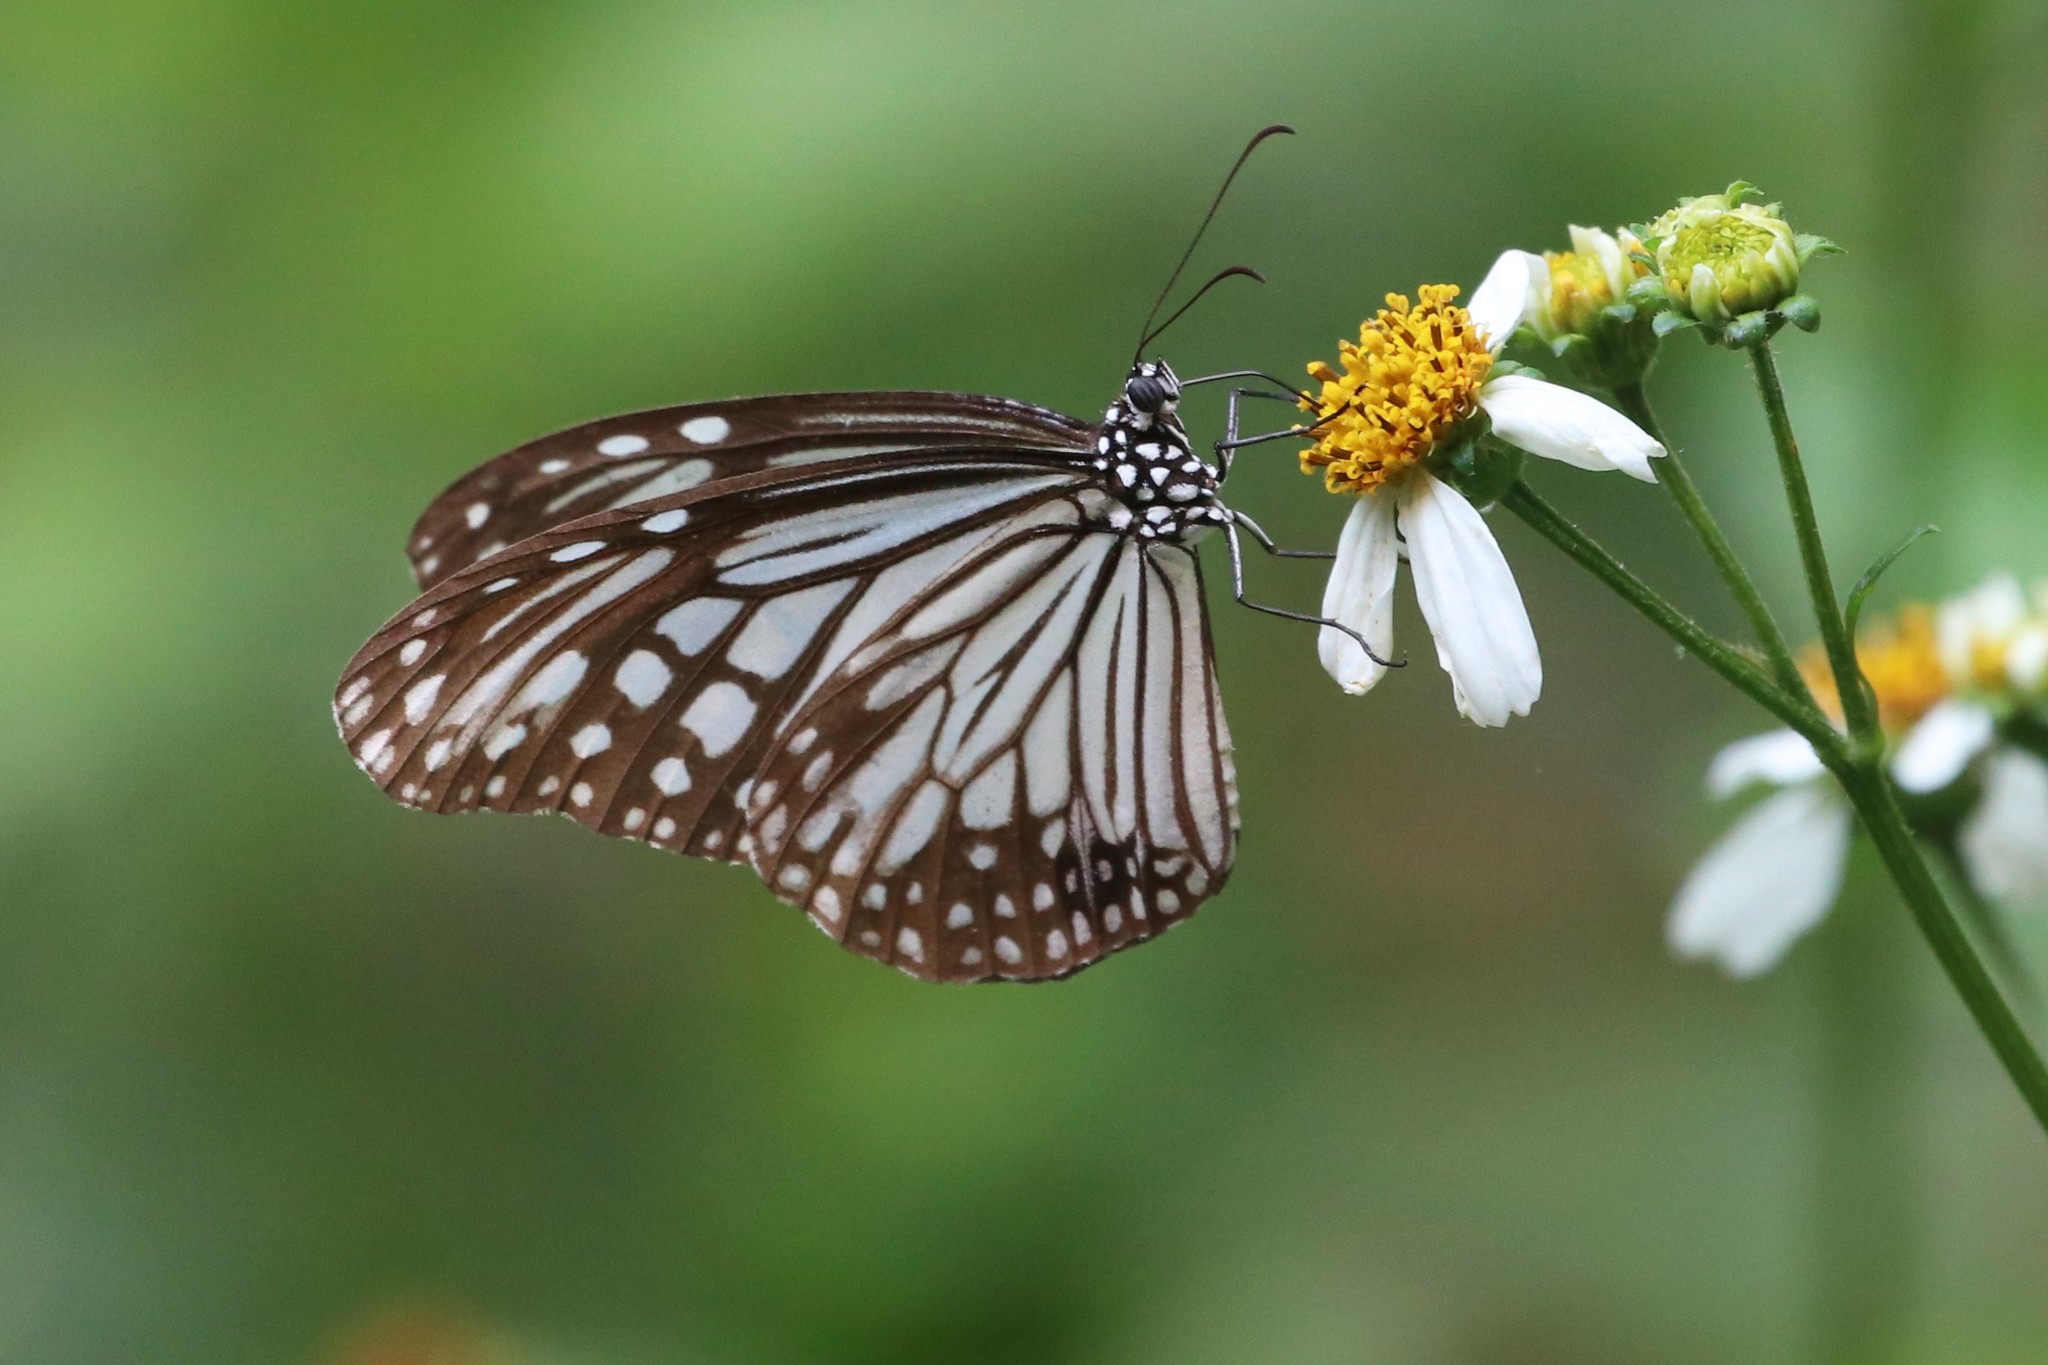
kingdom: Animalia
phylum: Arthropoda
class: Insecta
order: Lepidoptera
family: Nymphalidae
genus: Parantica
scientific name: Parantica aglea
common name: Glassy tiger
